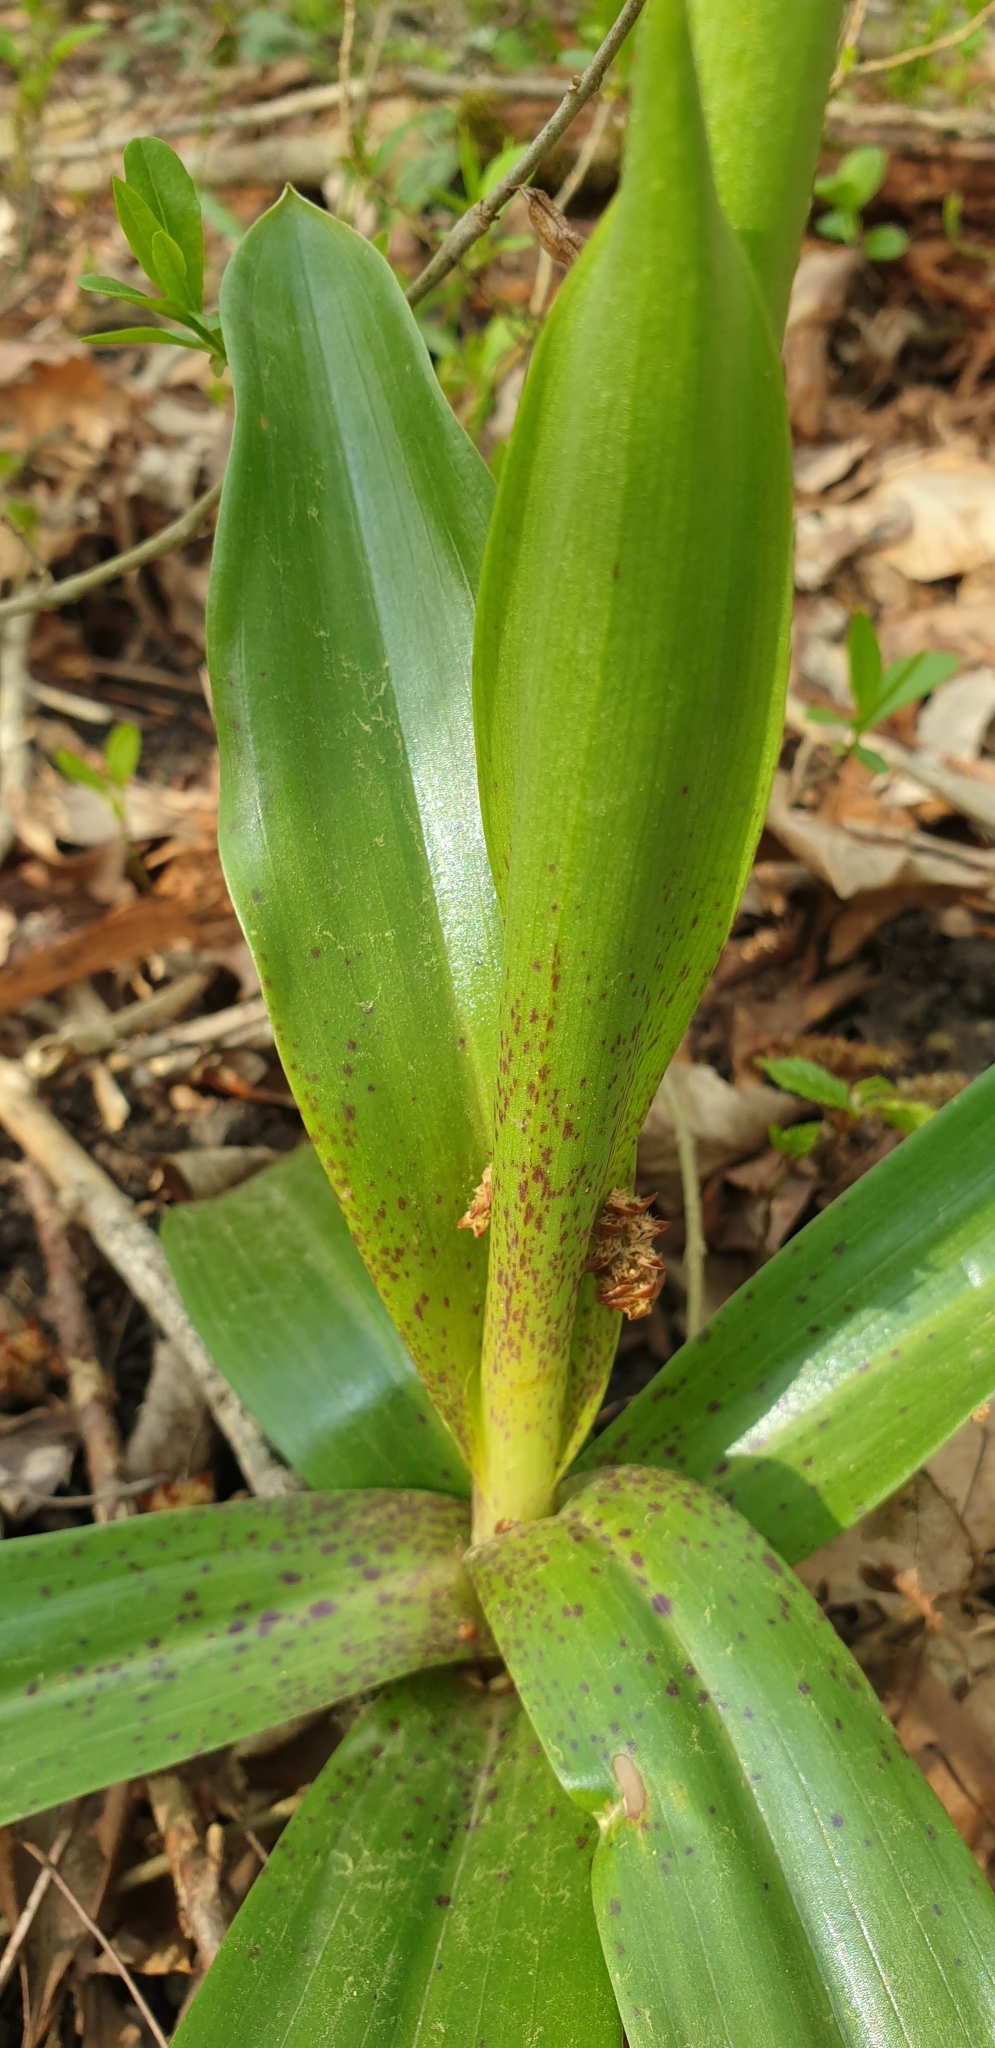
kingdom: Plantae
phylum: Tracheophyta
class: Liliopsida
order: Asparagales
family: Orchidaceae
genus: Orchis
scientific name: Orchis mascula
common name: Early-purple orchid
